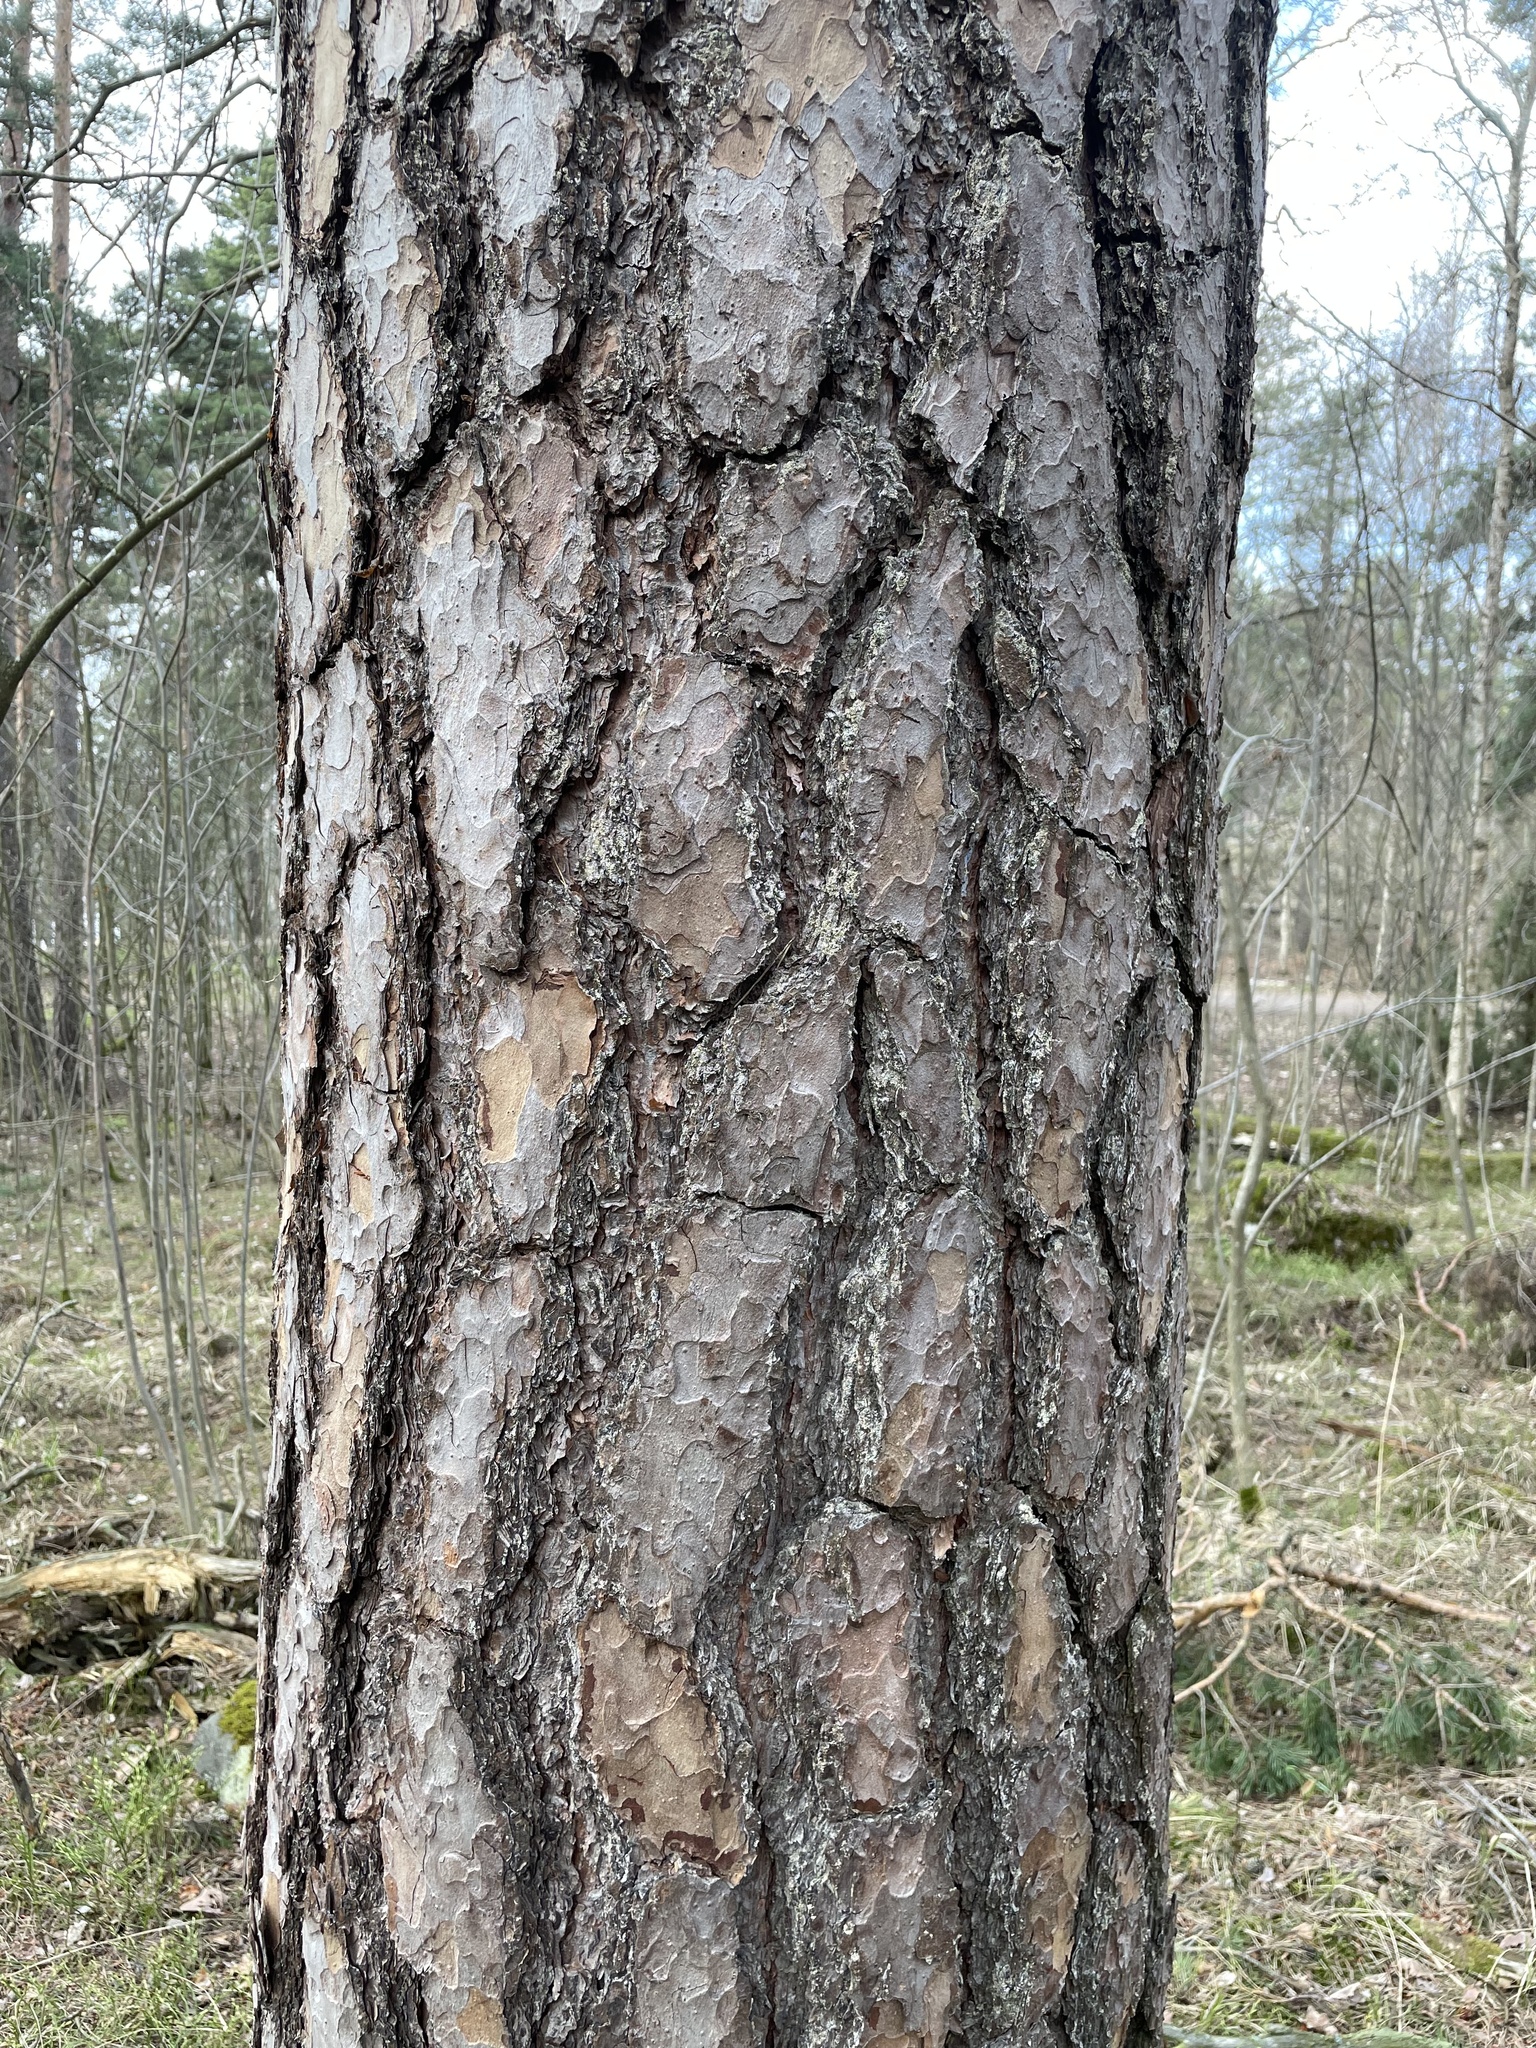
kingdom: Plantae
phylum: Tracheophyta
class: Pinopsida
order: Pinales
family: Pinaceae
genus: Pinus
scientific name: Pinus sylvestris
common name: Scots pine
